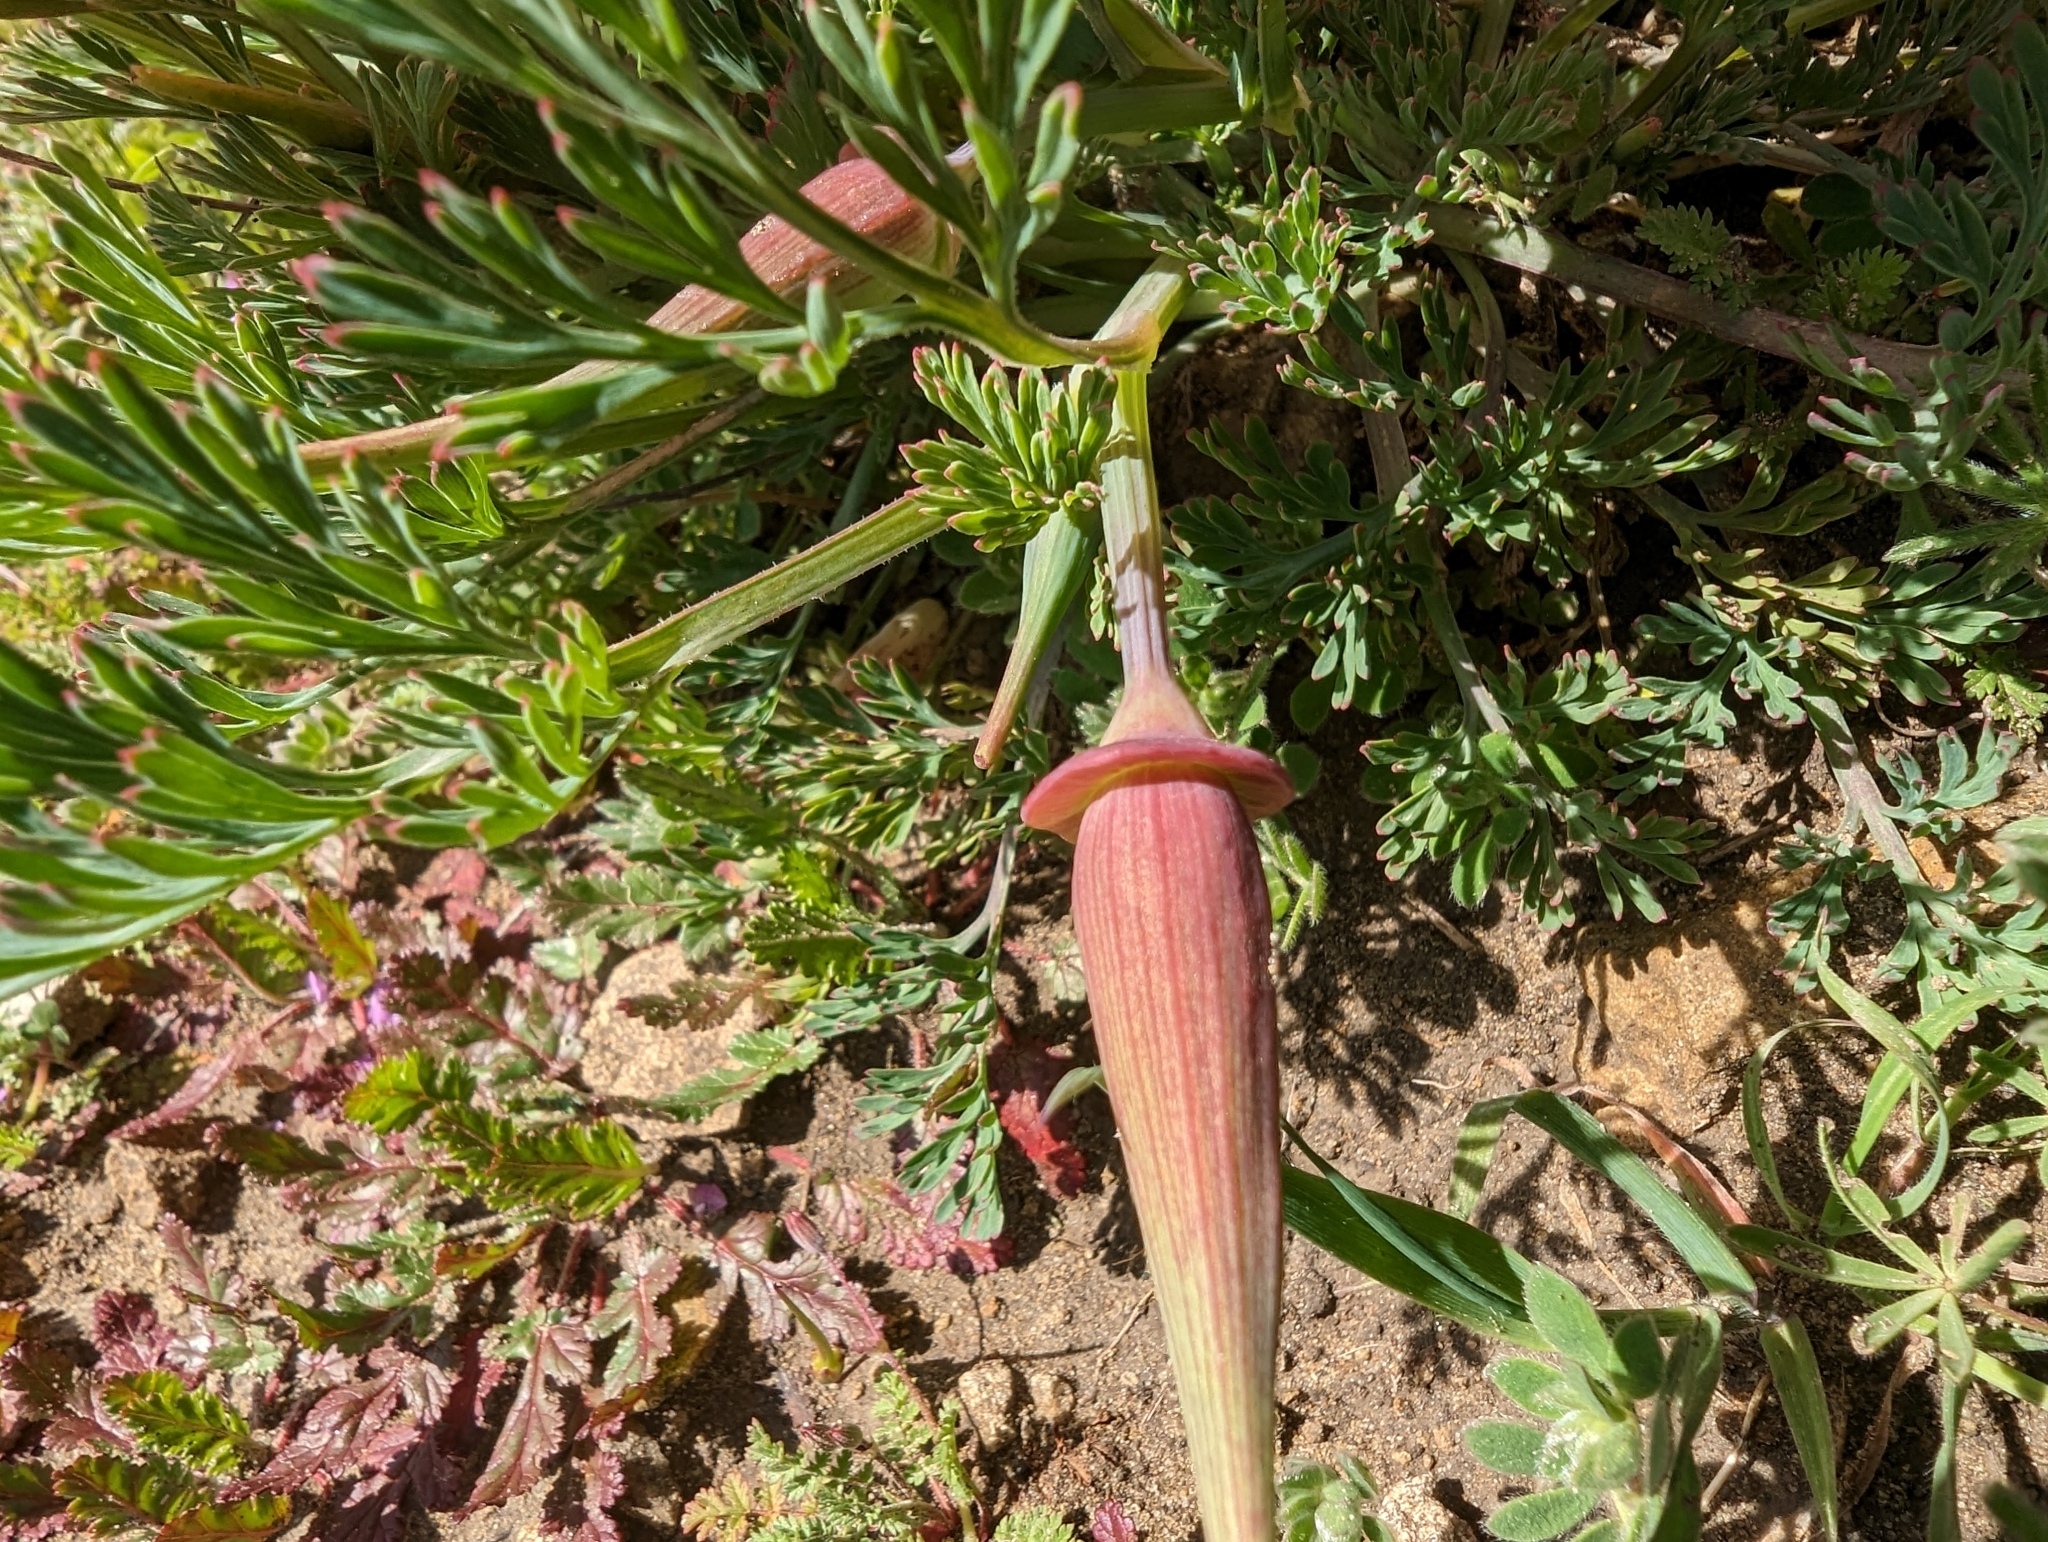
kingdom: Plantae
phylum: Tracheophyta
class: Magnoliopsida
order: Ranunculales
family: Papaveraceae
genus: Eschscholzia
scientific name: Eschscholzia californica
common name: California poppy
